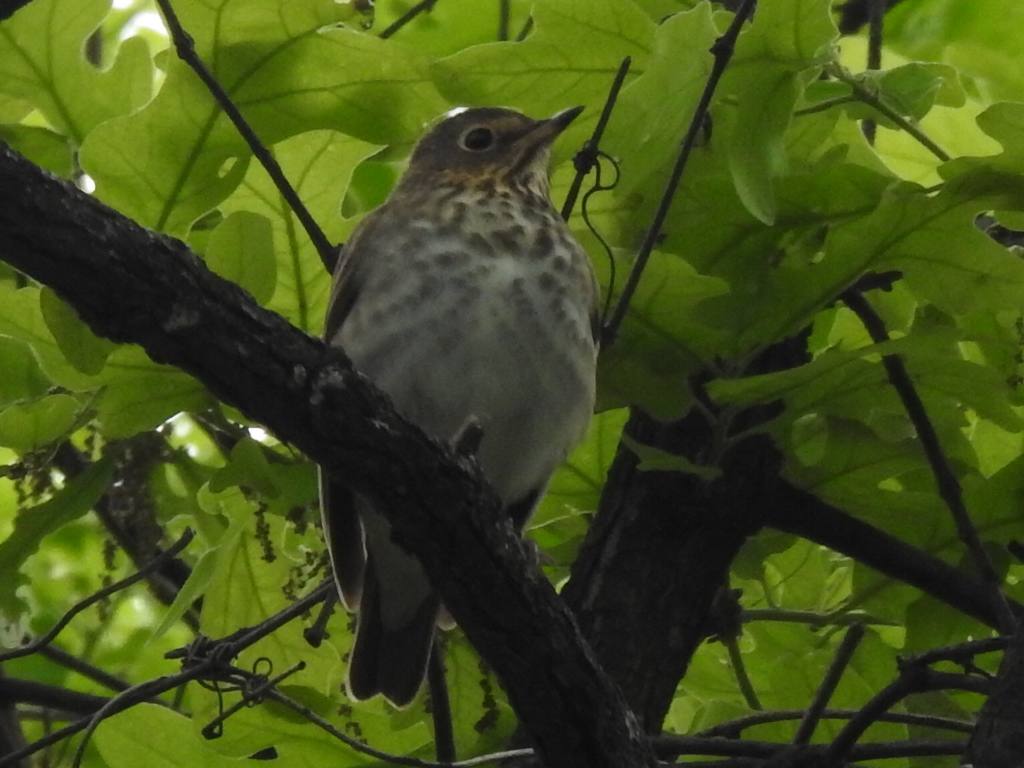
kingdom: Animalia
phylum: Chordata
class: Aves
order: Passeriformes
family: Turdidae
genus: Catharus
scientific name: Catharus ustulatus
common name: Swainson's thrush
